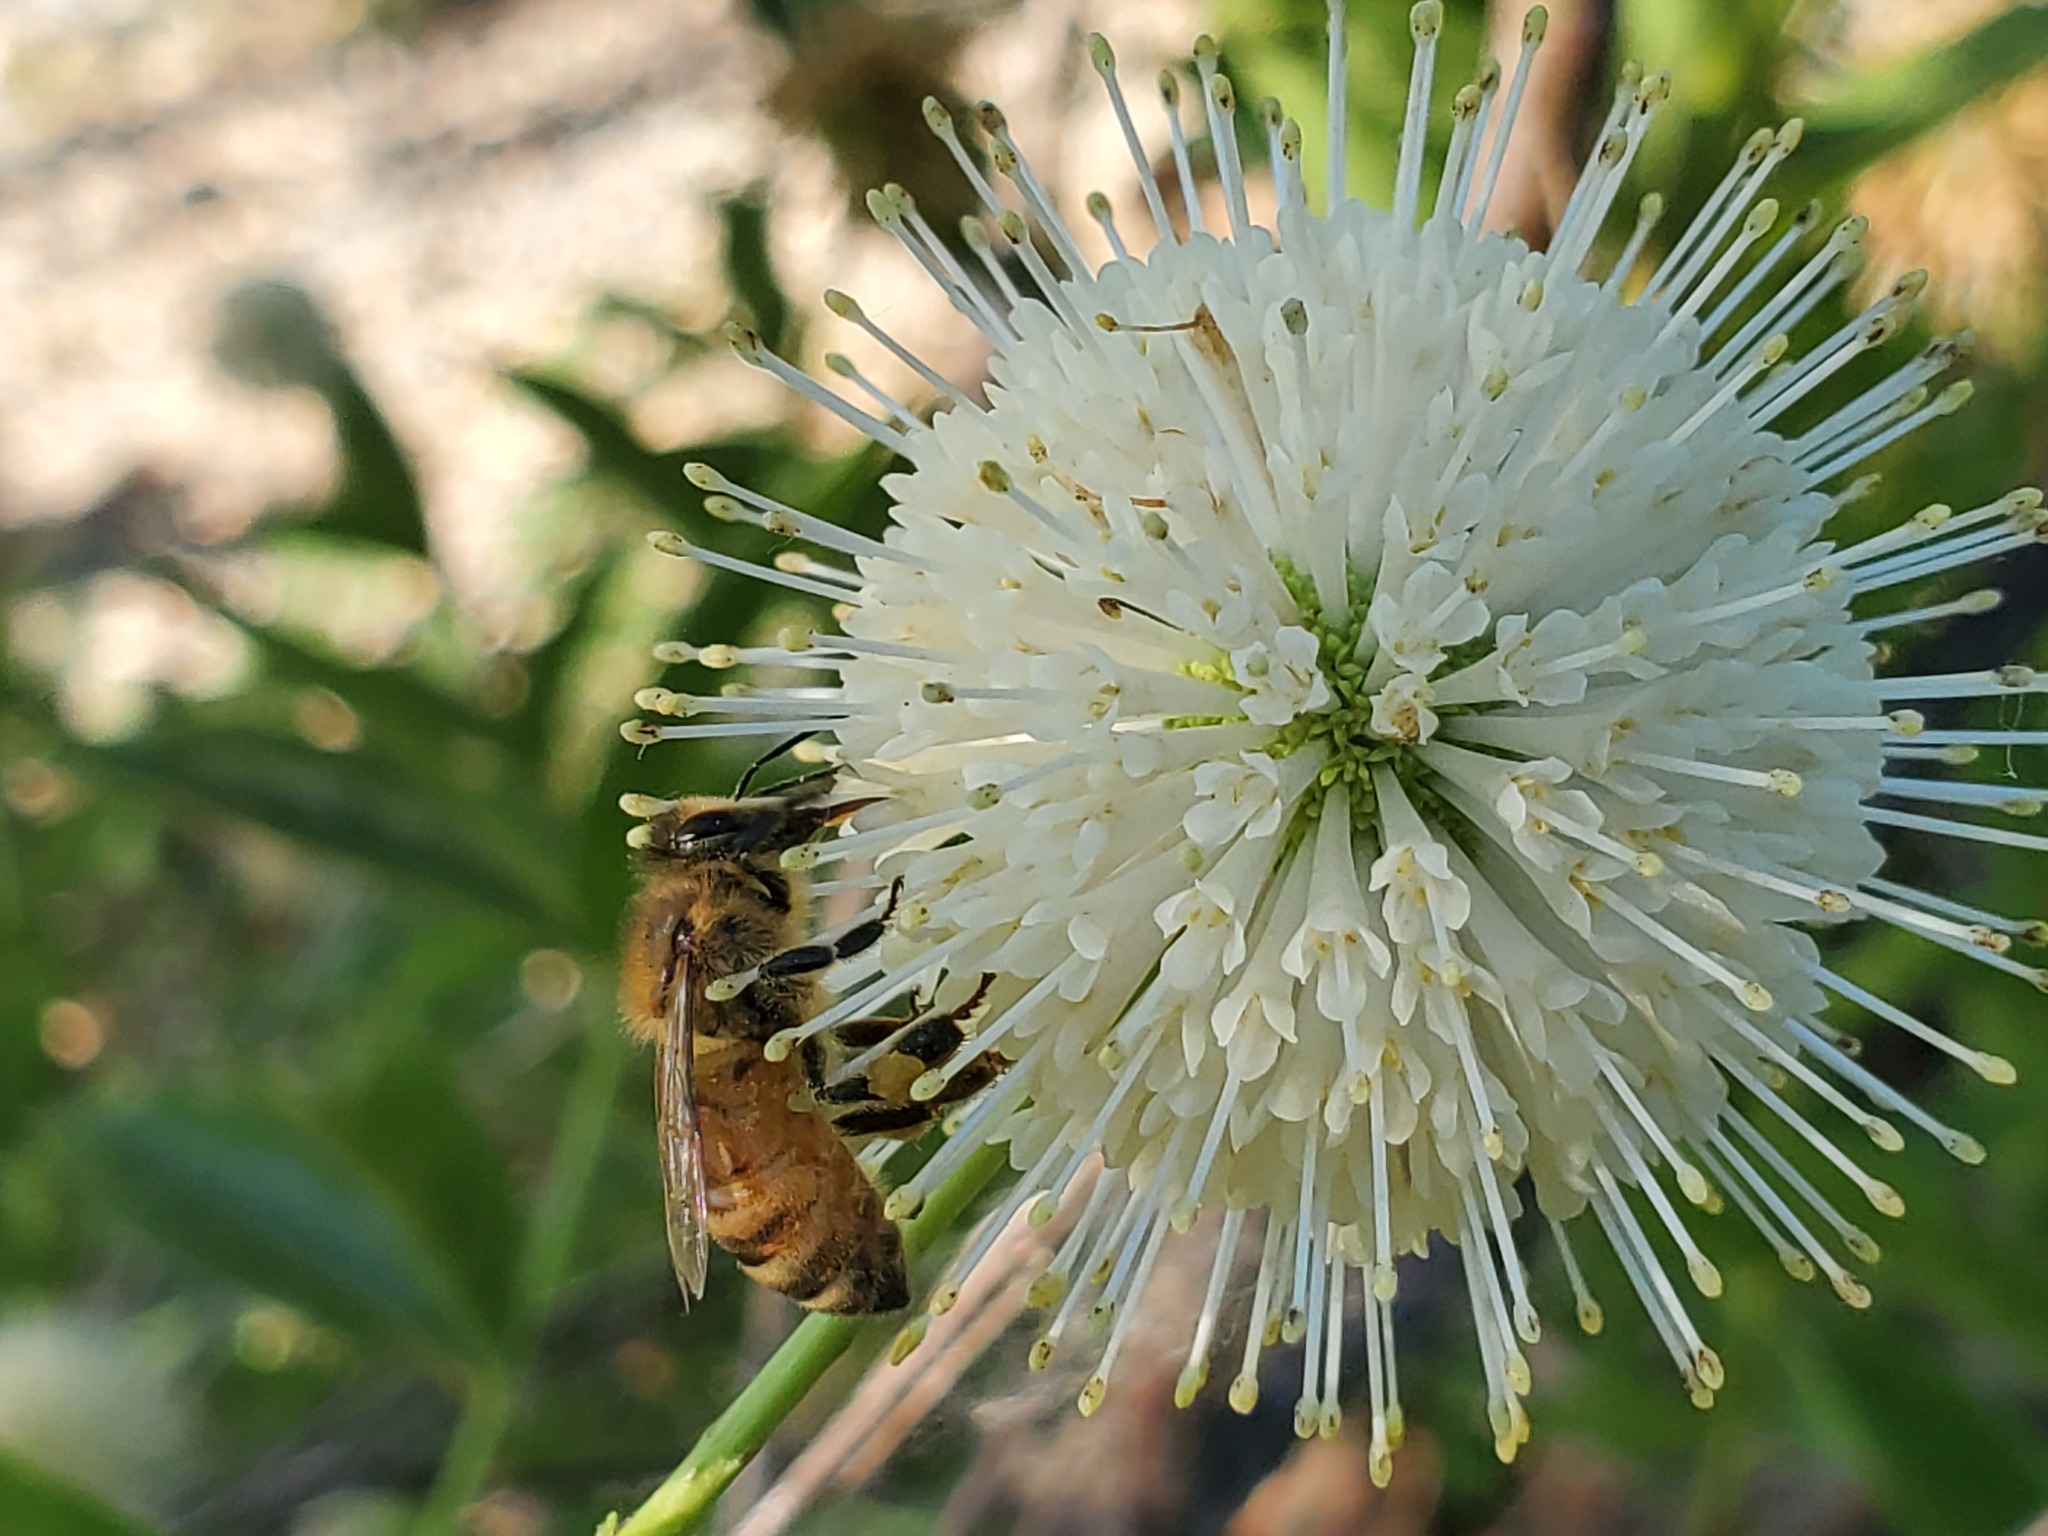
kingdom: Plantae
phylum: Tracheophyta
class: Magnoliopsida
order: Gentianales
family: Rubiaceae
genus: Cephalanthus
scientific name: Cephalanthus occidentalis
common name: Button-willow
